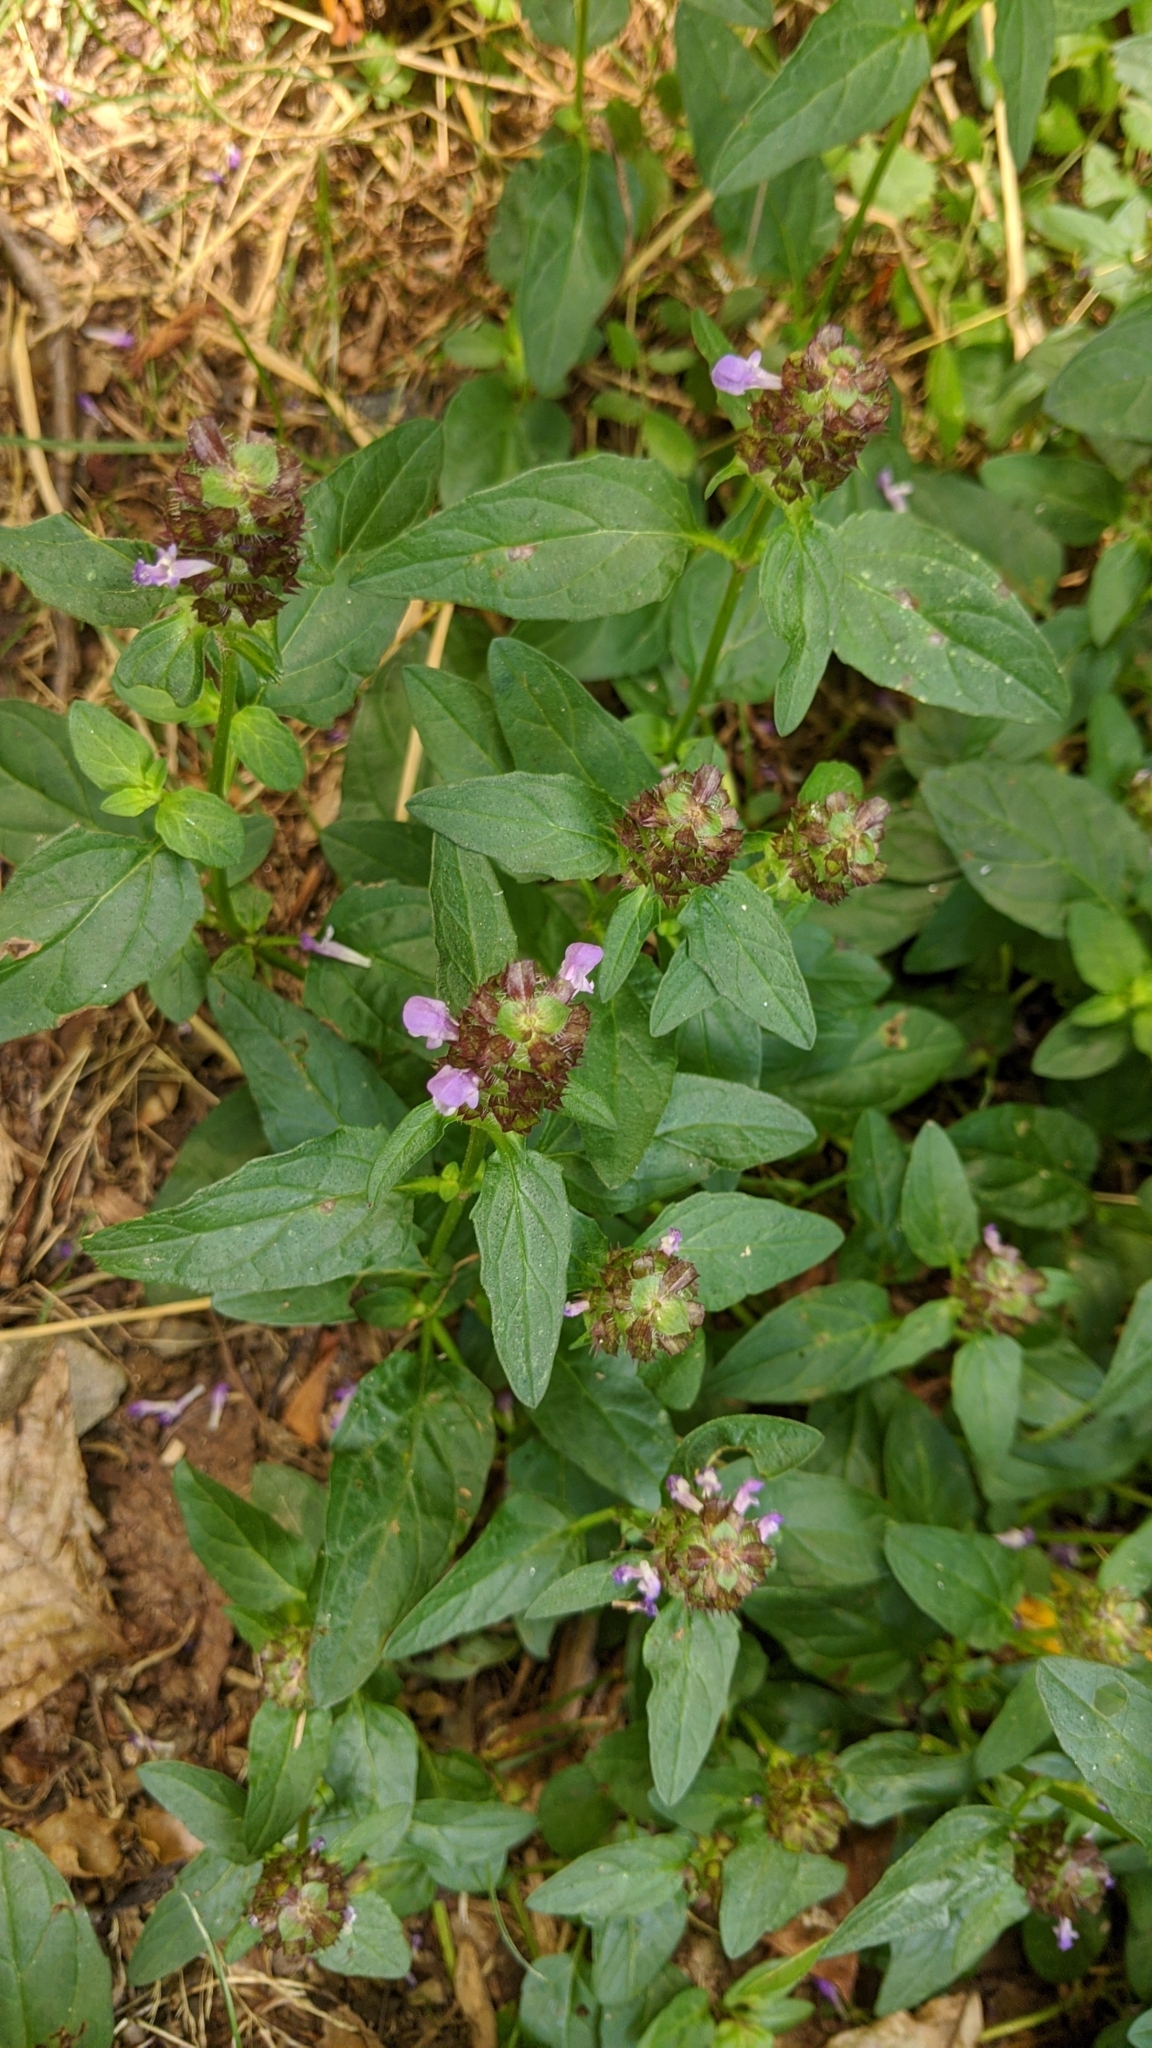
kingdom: Plantae
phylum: Tracheophyta
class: Magnoliopsida
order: Lamiales
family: Lamiaceae
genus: Prunella
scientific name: Prunella vulgaris
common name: Heal-all
